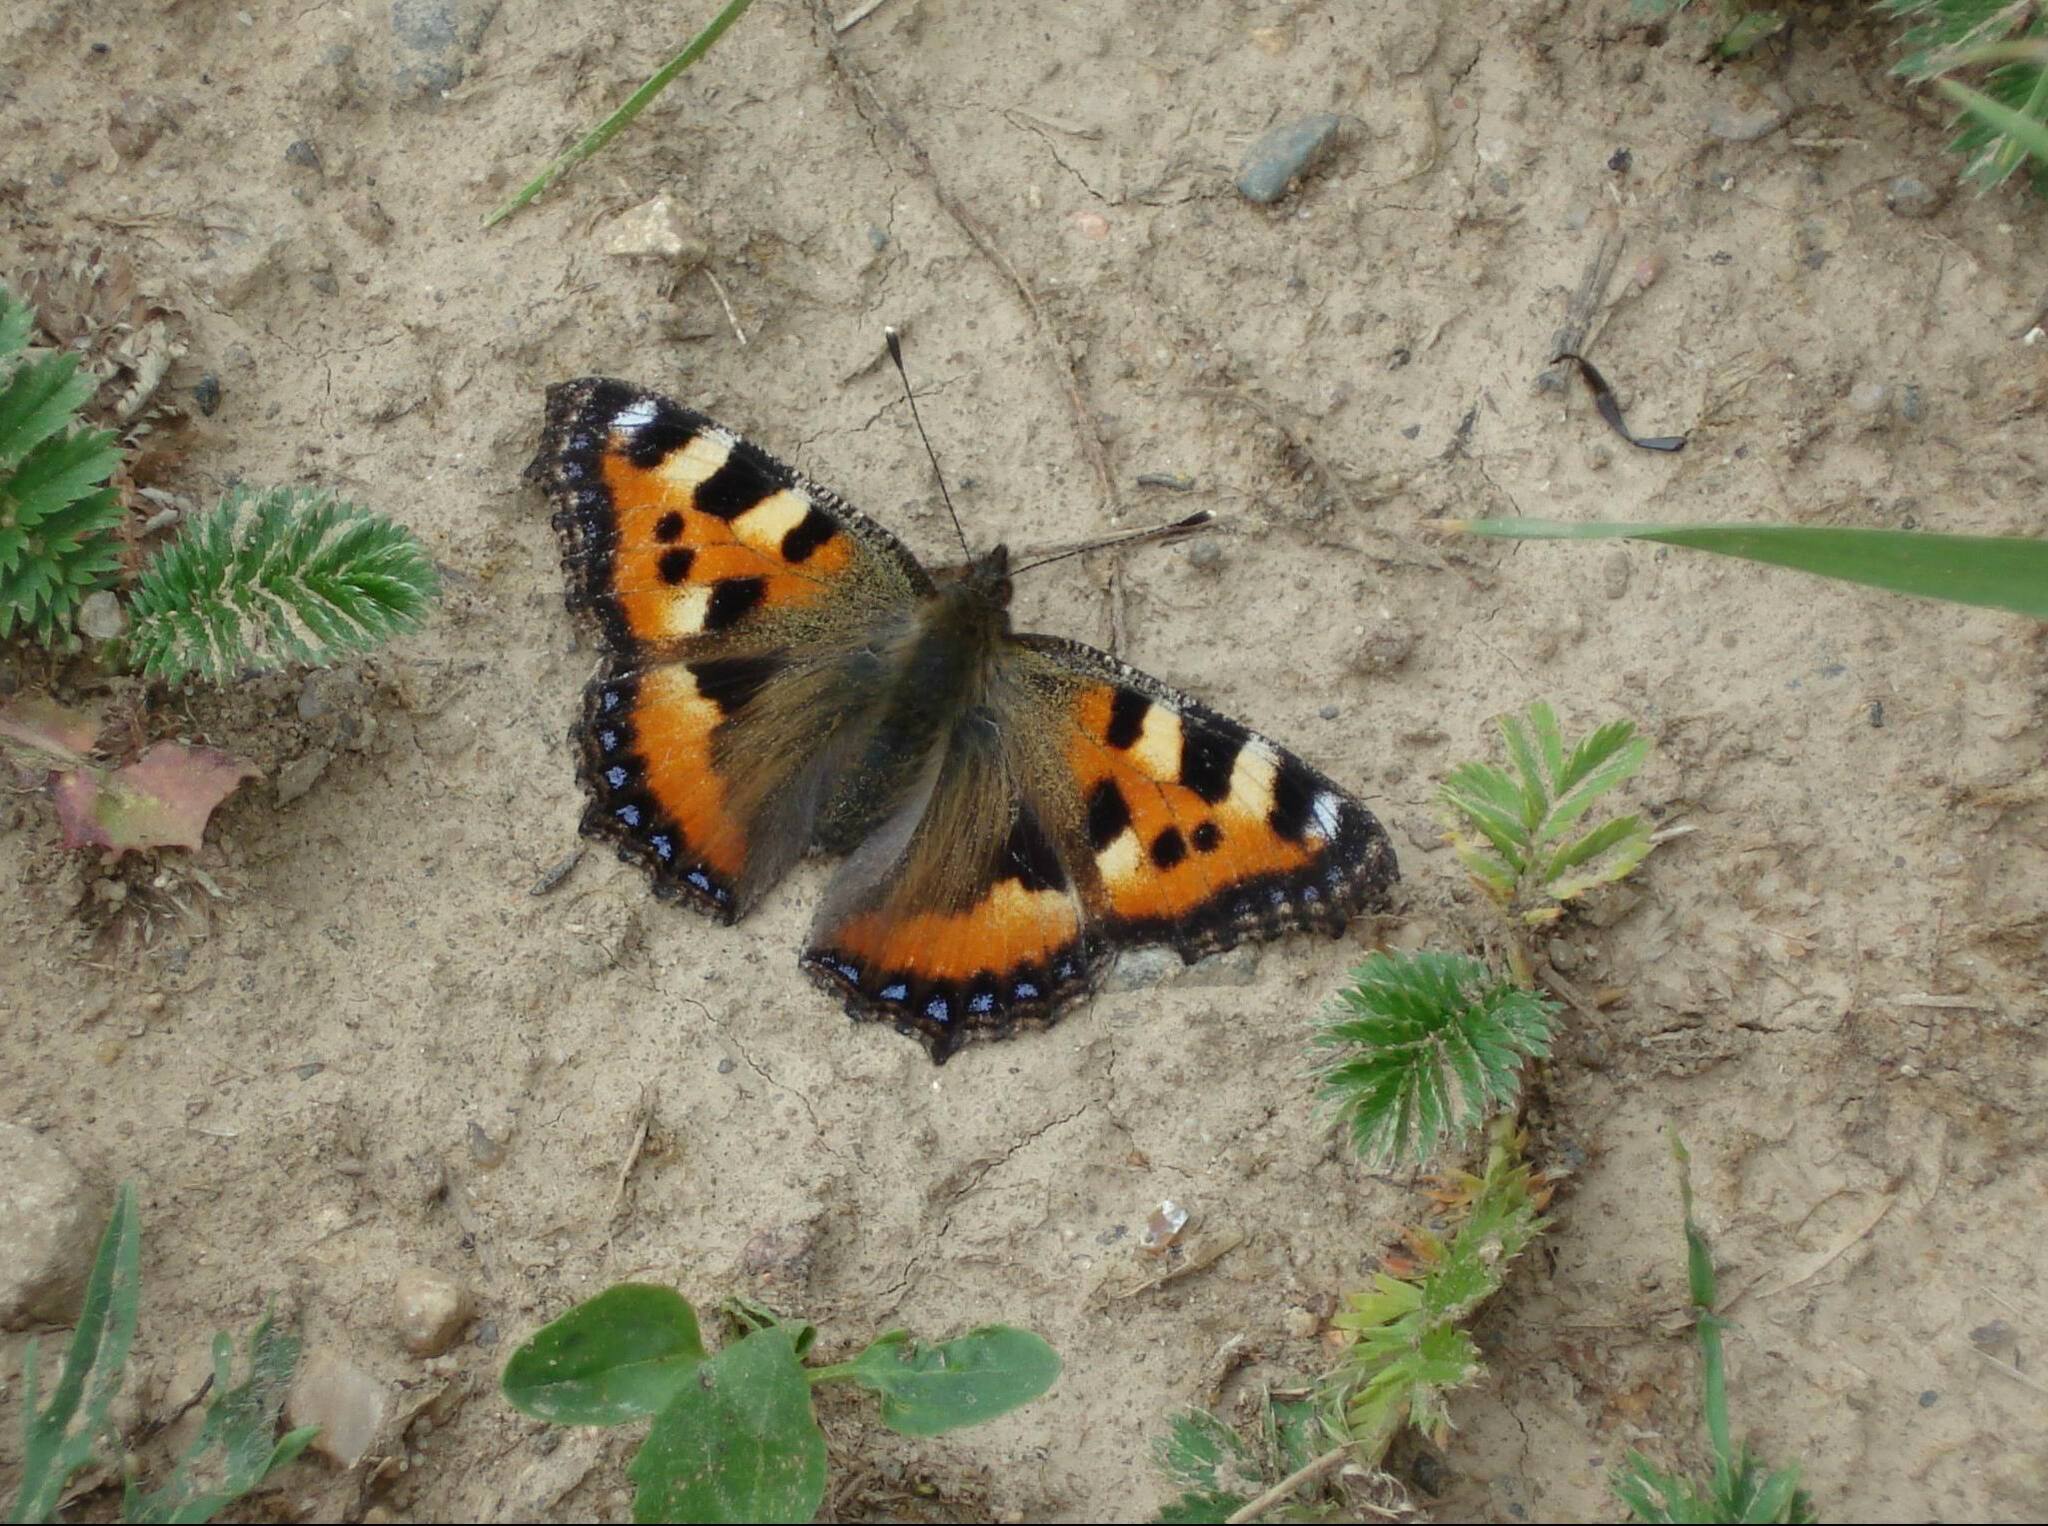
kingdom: Animalia
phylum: Arthropoda
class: Insecta
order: Lepidoptera
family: Nymphalidae
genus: Aglais
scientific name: Aglais urticae
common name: Small tortoiseshell
